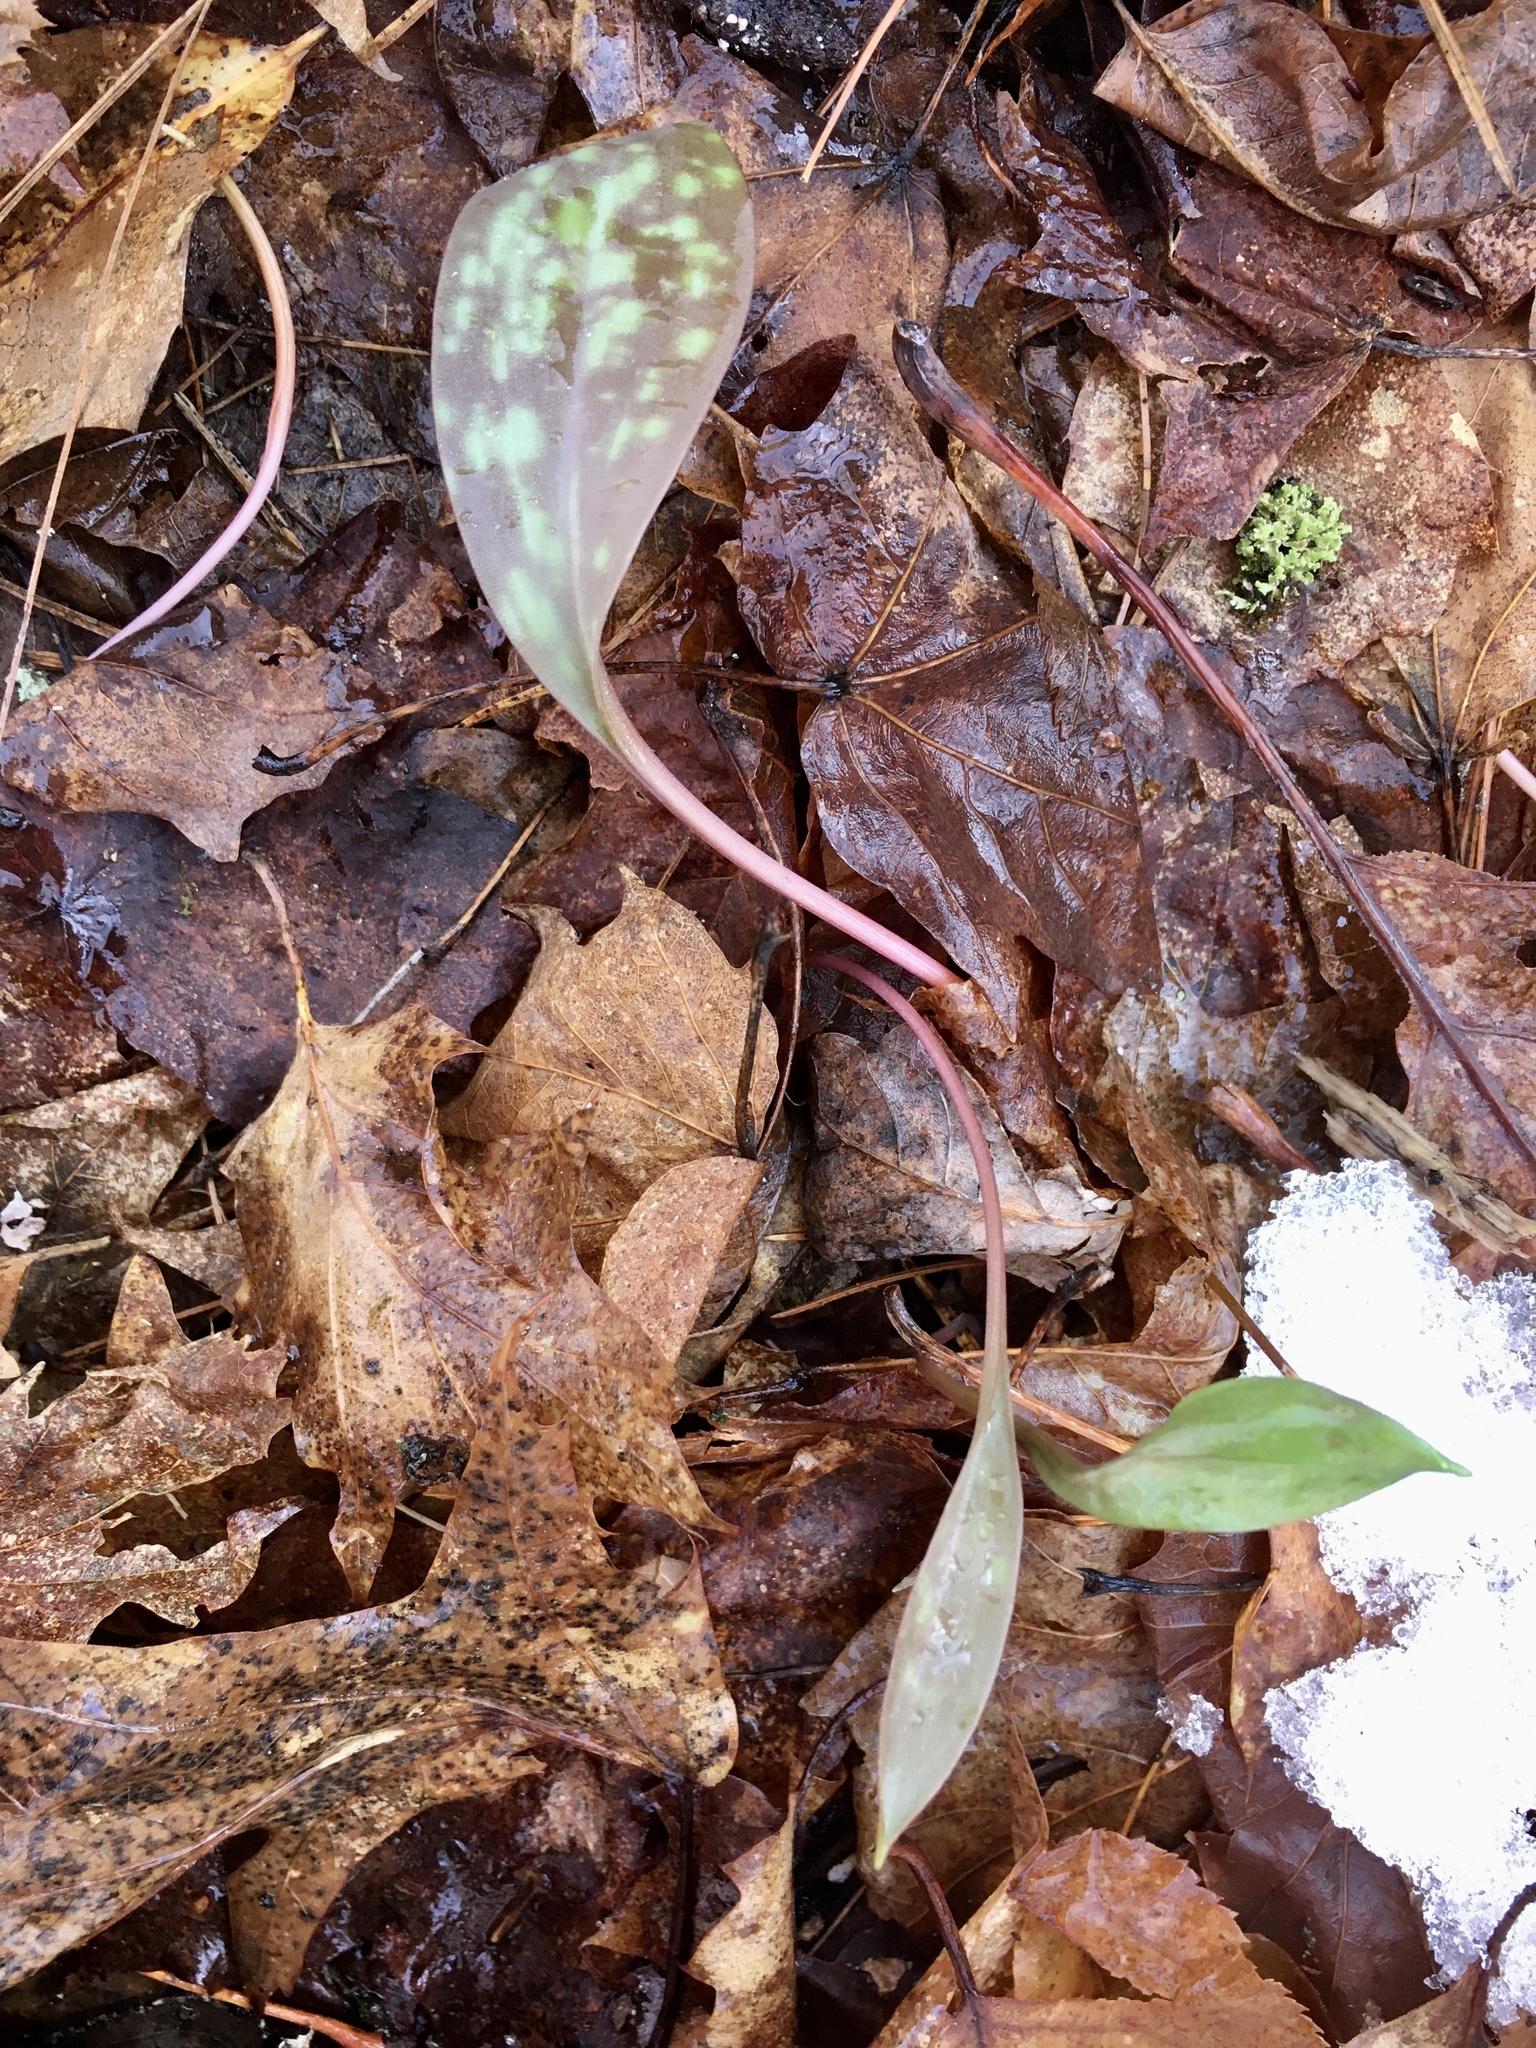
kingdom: Plantae
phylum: Tracheophyta
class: Liliopsida
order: Liliales
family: Liliaceae
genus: Erythronium
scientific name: Erythronium americanum
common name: Yellow adder's-tongue
